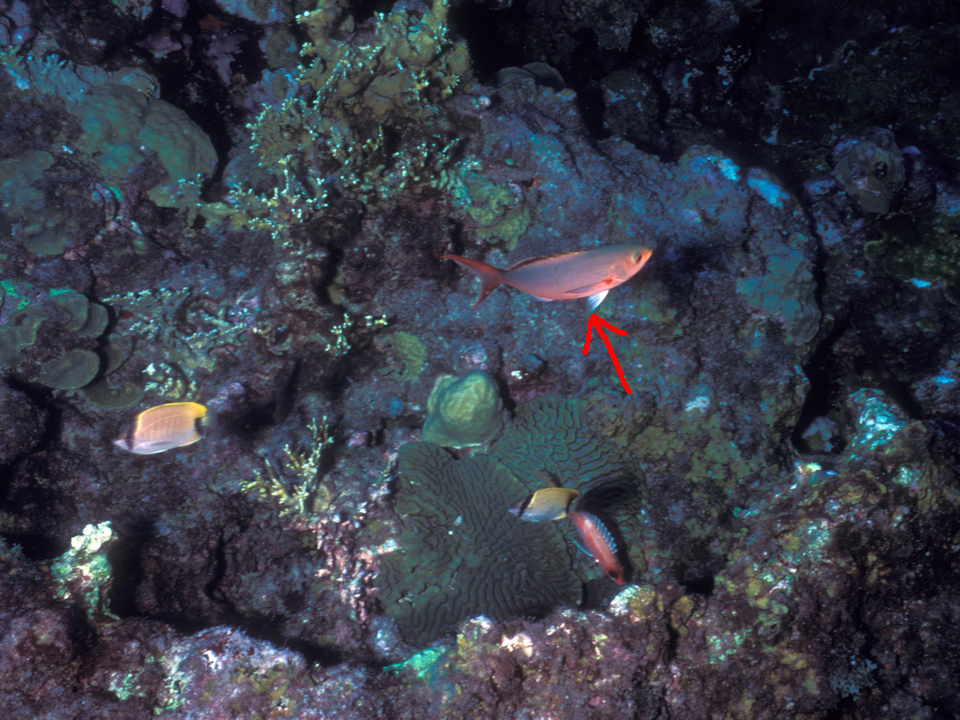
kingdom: Animalia
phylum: Chordata
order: Perciformes
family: Serranidae
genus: Paranthias
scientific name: Paranthias furcifer
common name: Creole-fish
